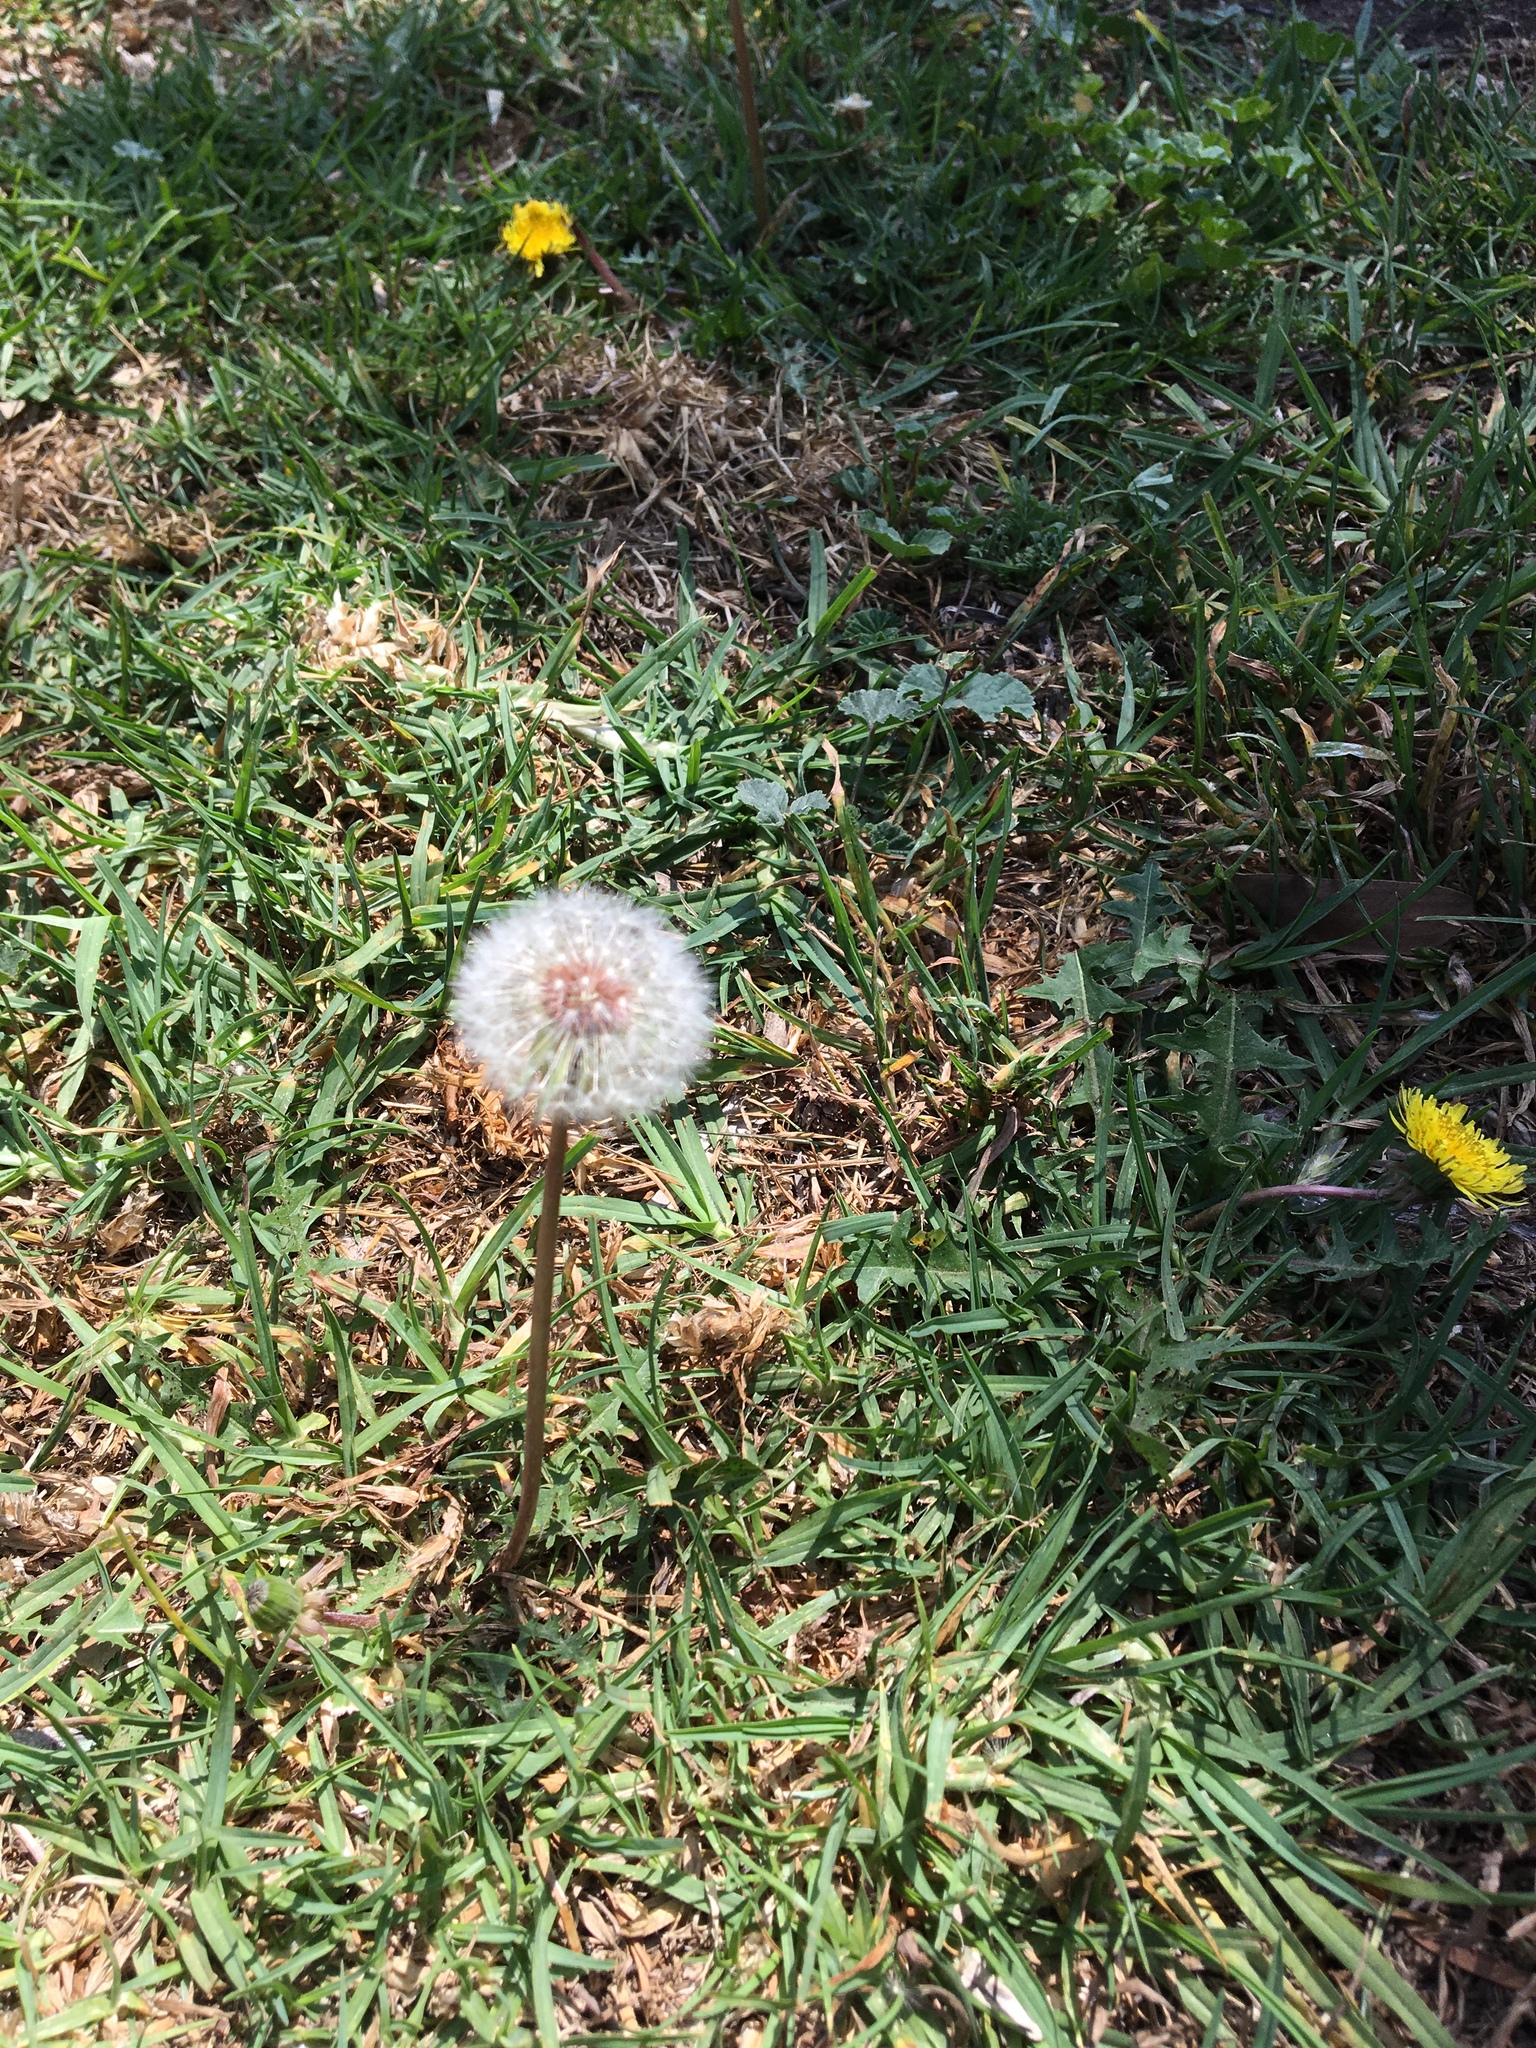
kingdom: Plantae
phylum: Tracheophyta
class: Magnoliopsida
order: Asterales
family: Asteraceae
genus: Taraxacum
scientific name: Taraxacum erythrospermum
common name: Rock dandelion
